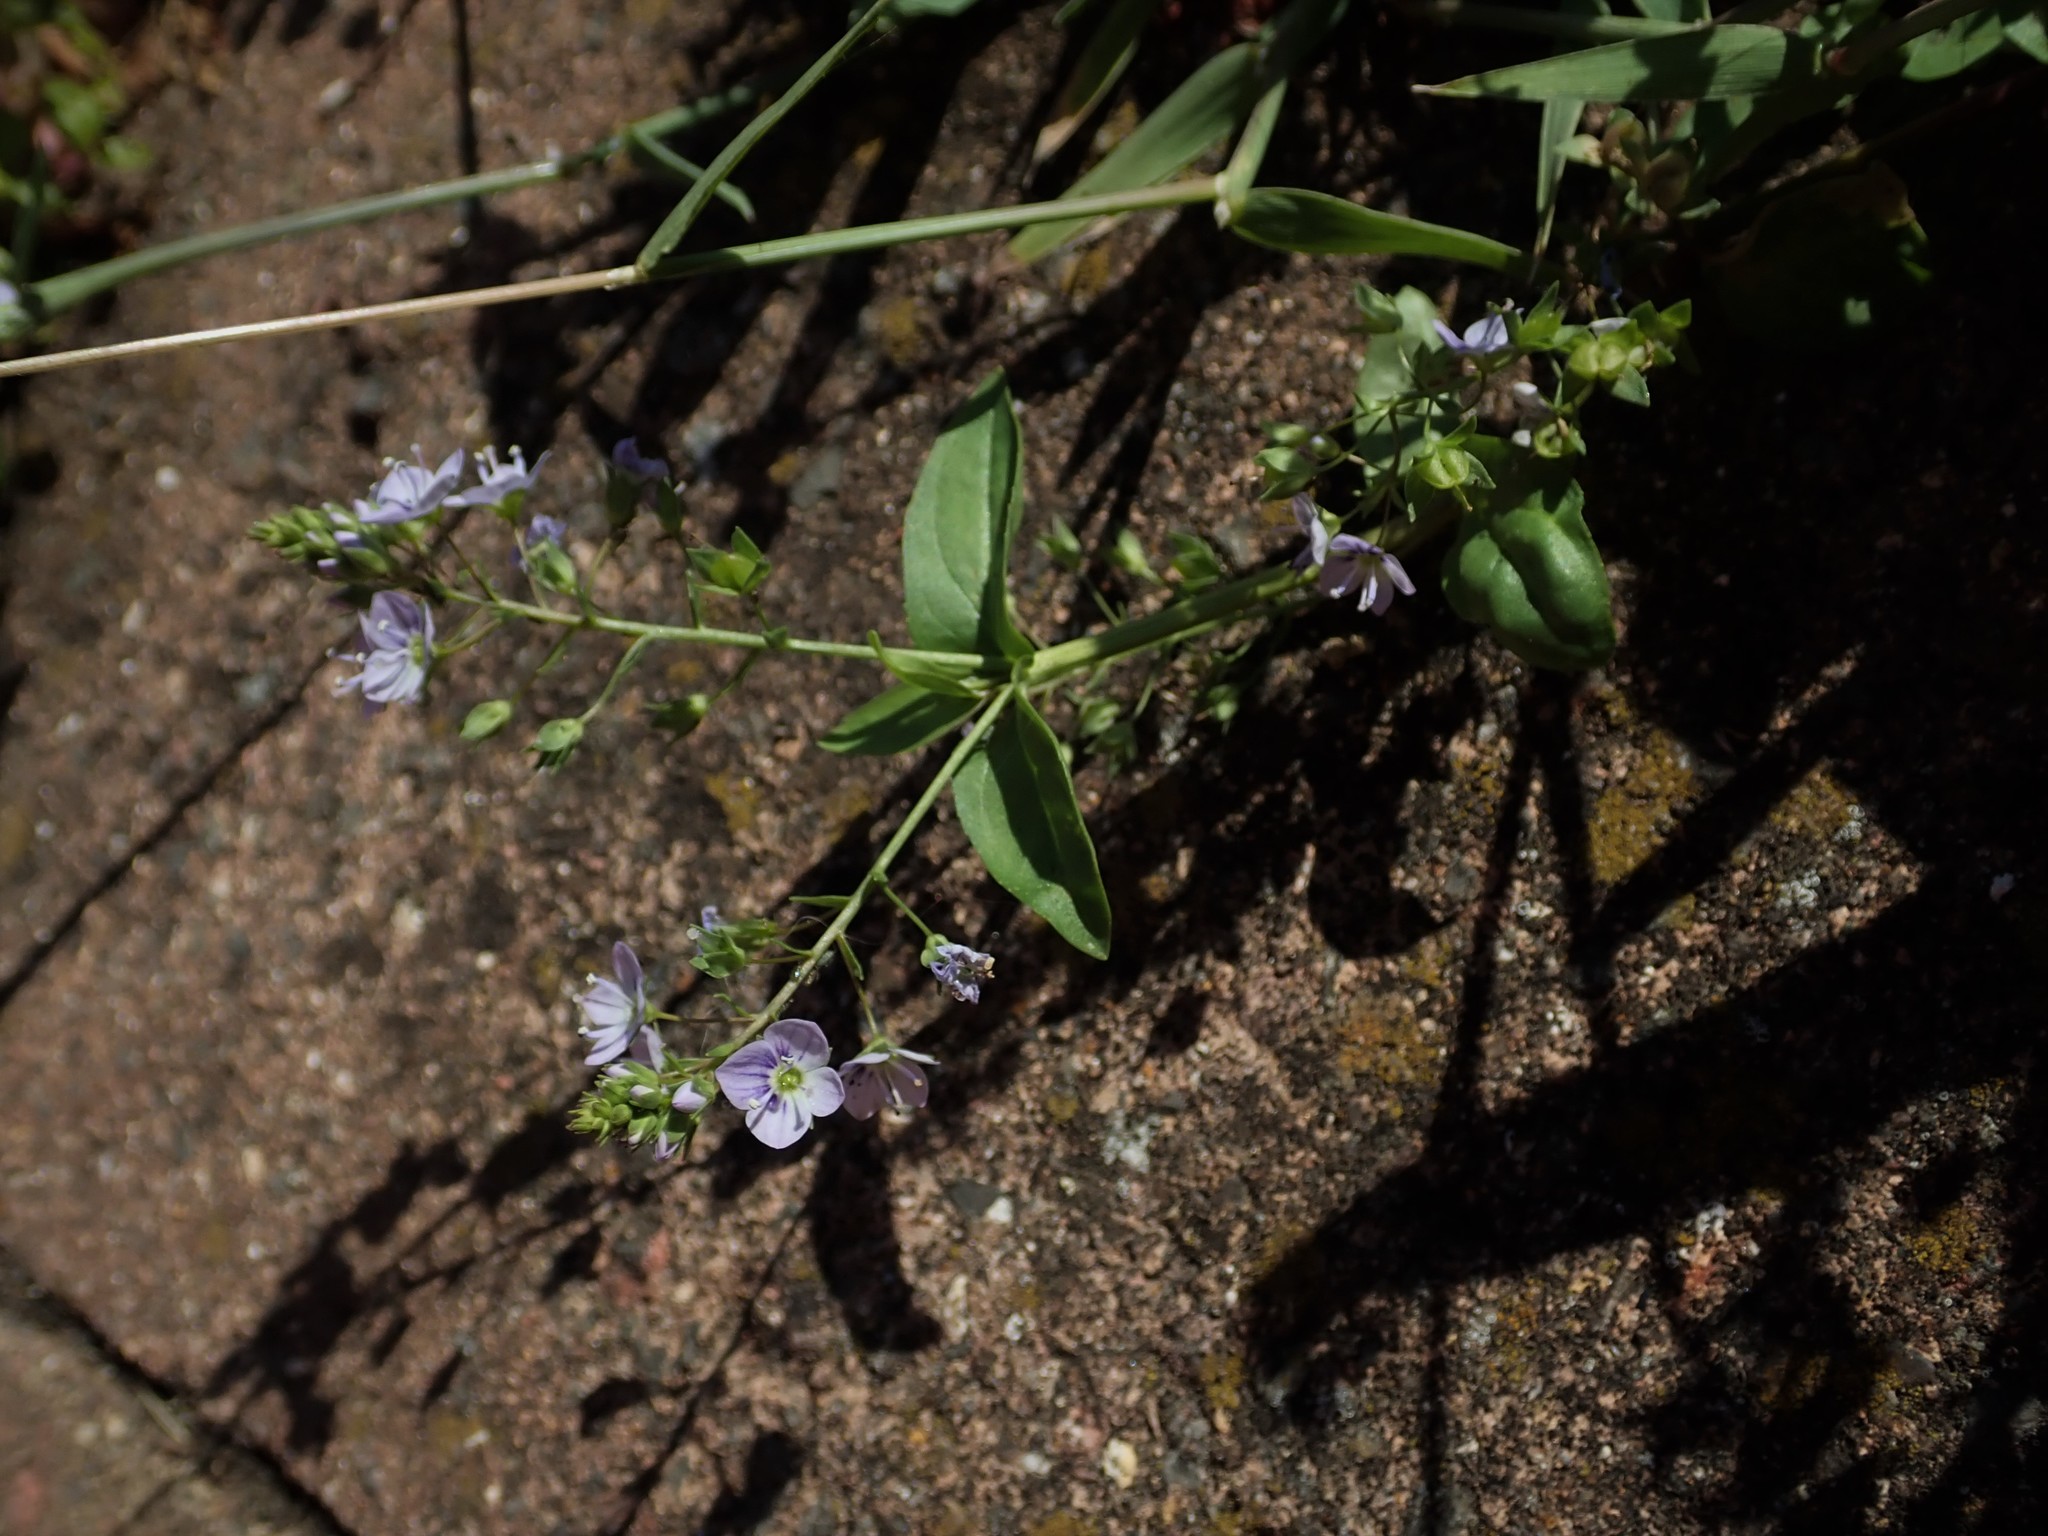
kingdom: Plantae
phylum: Tracheophyta
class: Magnoliopsida
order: Lamiales
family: Plantaginaceae
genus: Veronica
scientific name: Veronica anagallis-aquatica
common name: Water speedwell
